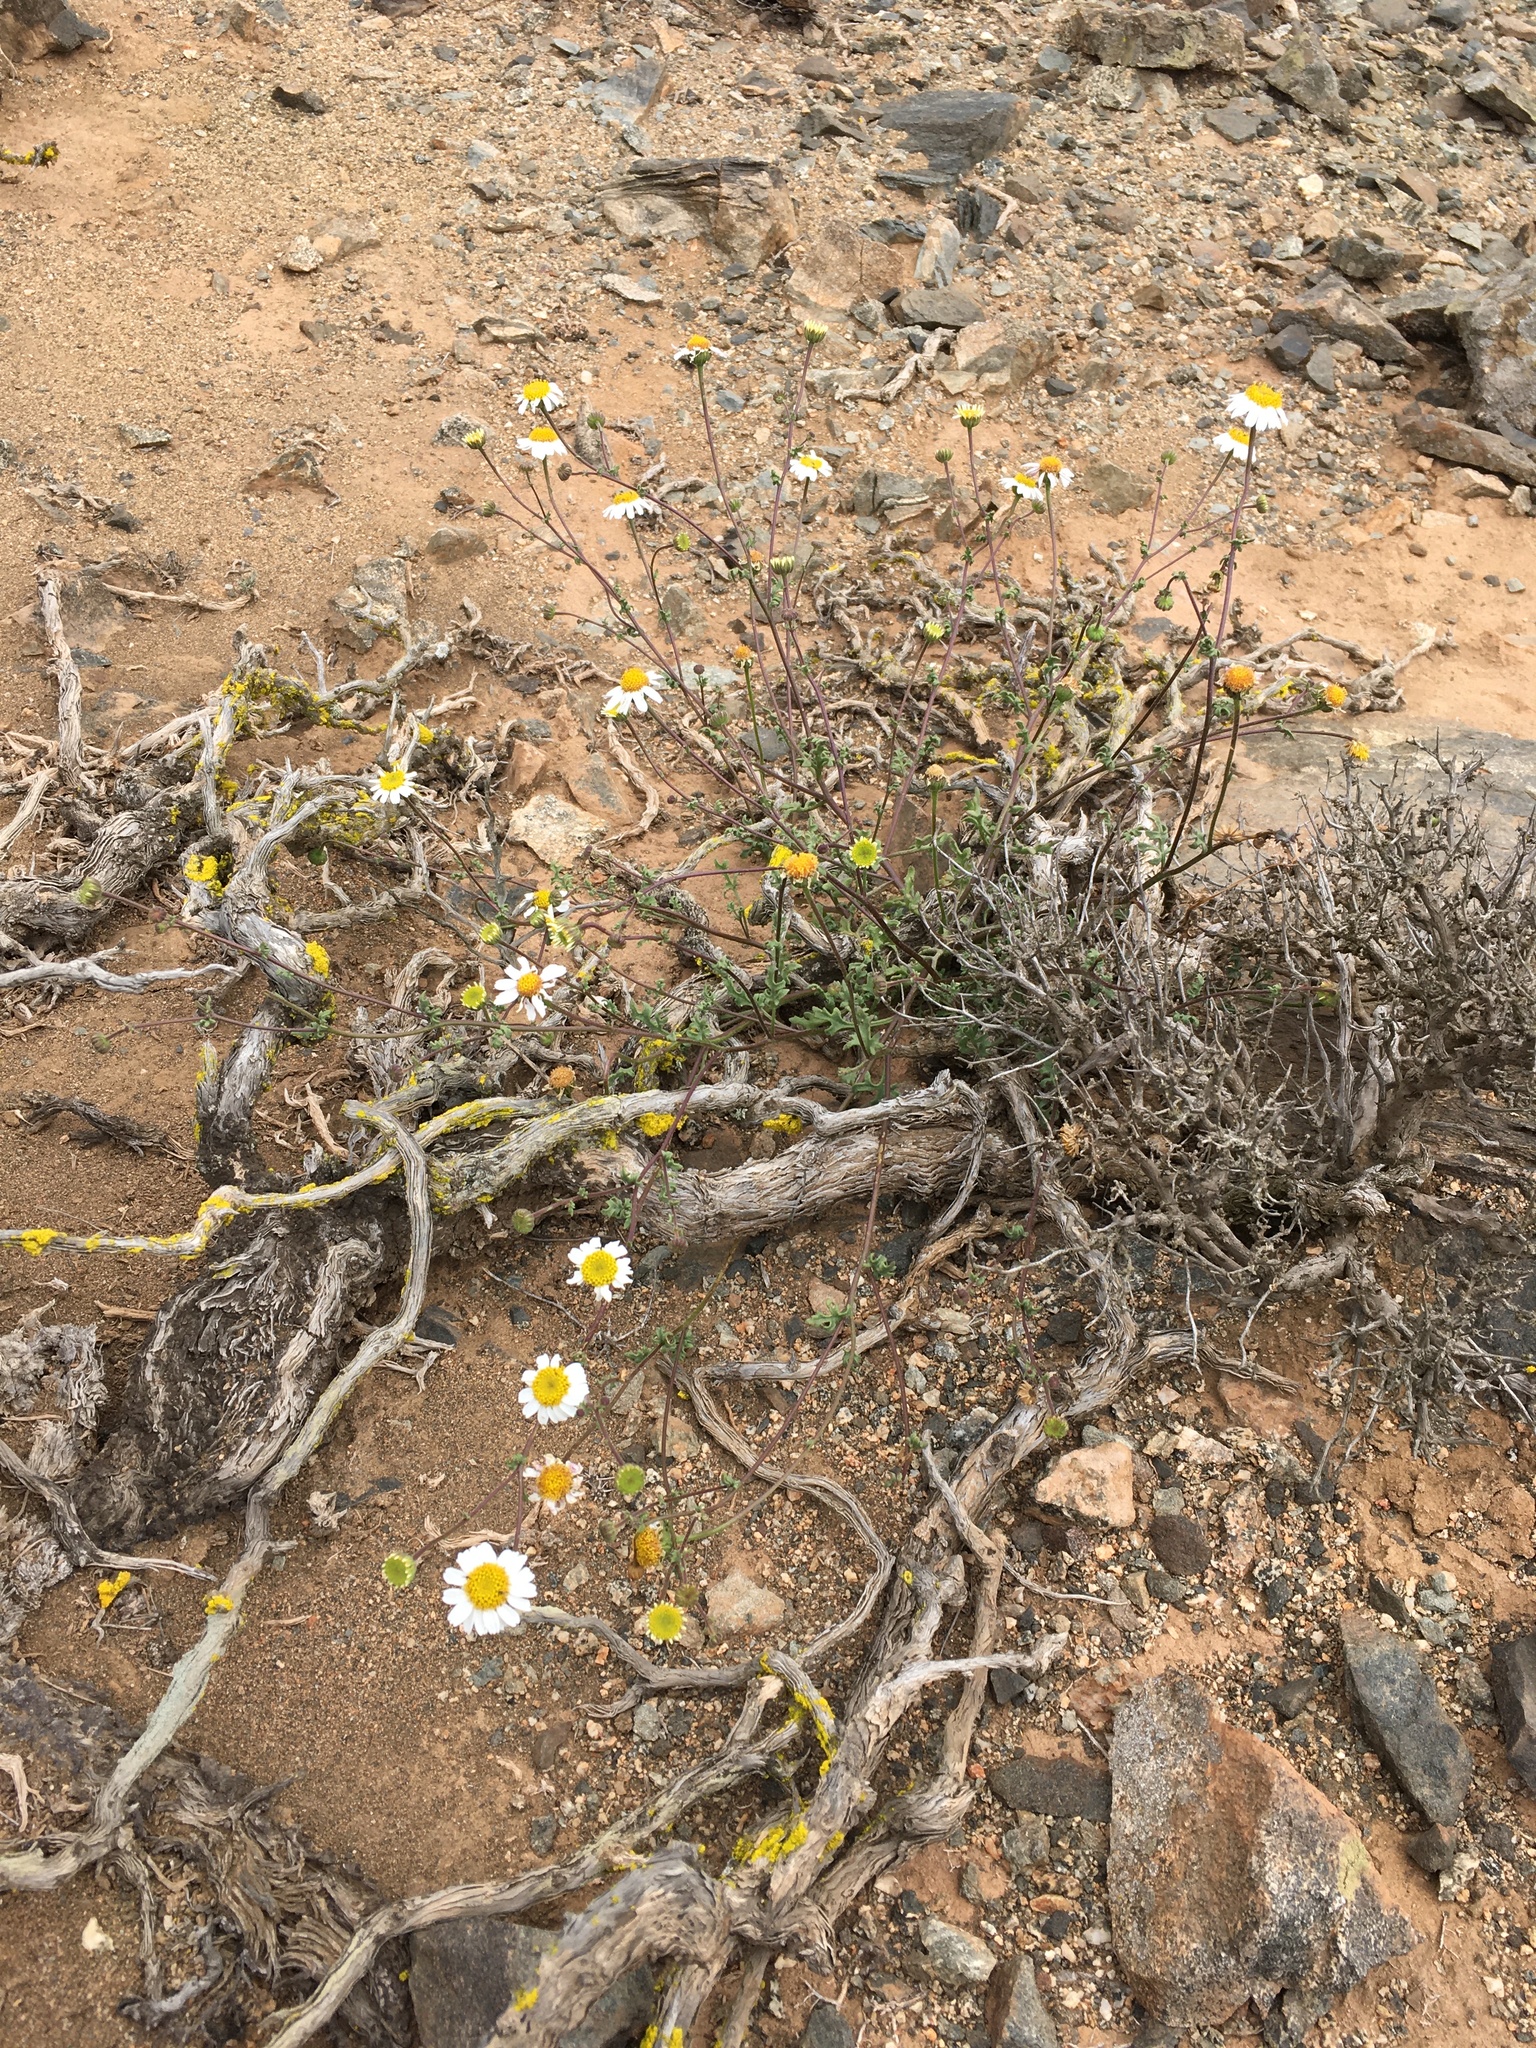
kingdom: Plantae
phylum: Tracheophyta
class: Magnoliopsida
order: Asterales
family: Asteraceae
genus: Laphamia
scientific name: Laphamia emoryi
